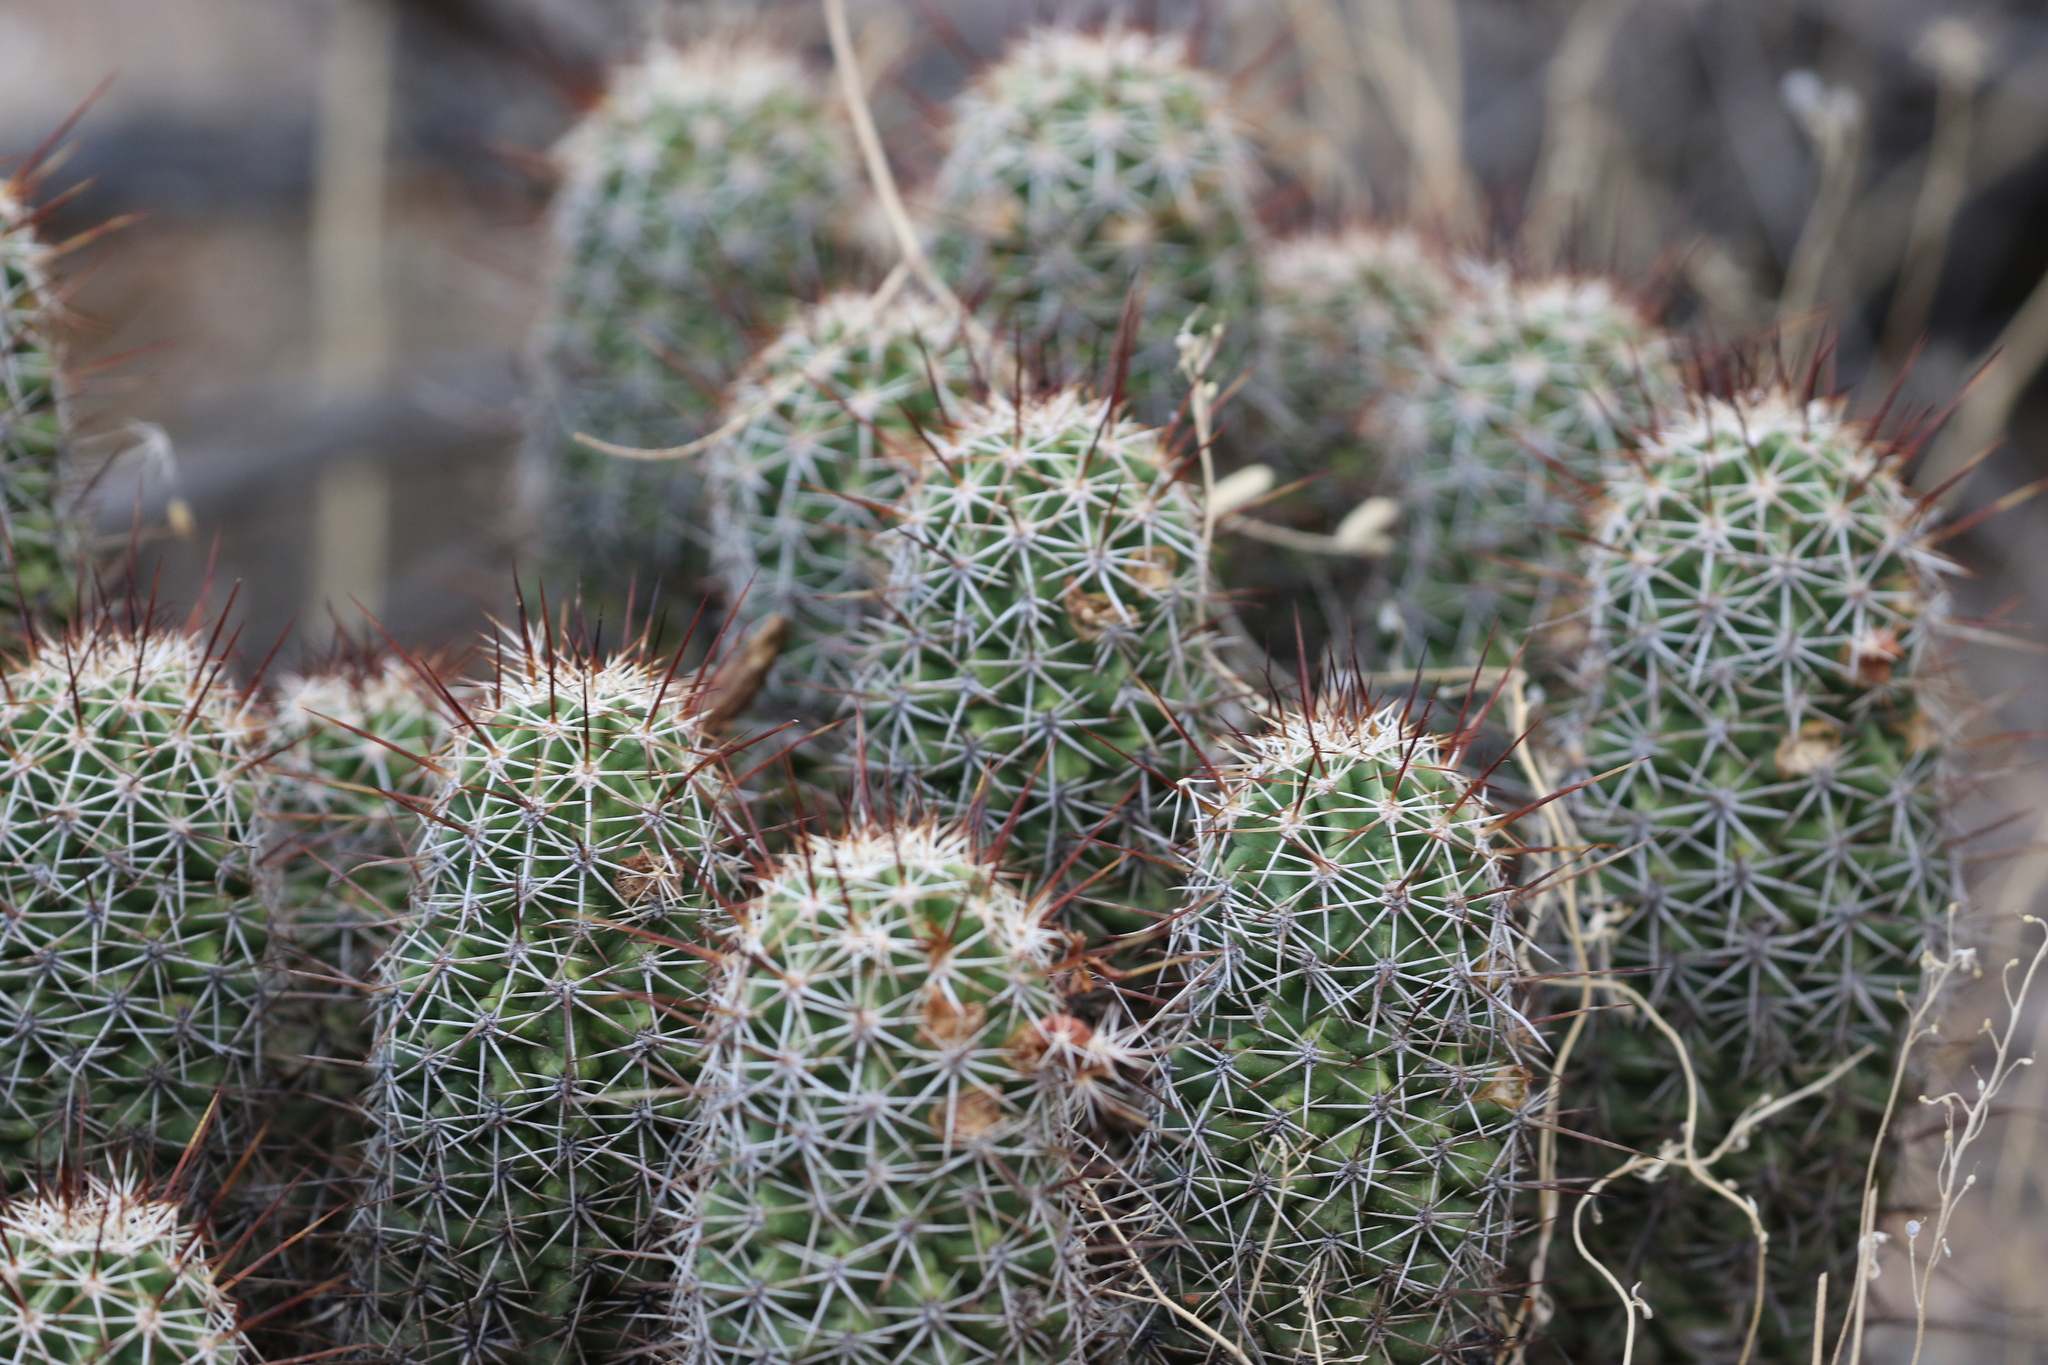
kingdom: Plantae
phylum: Tracheophyta
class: Magnoliopsida
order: Caryophyllales
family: Cactaceae
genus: Echinocereus
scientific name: Echinocereus fasciculatus
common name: Bundle hedgehog
